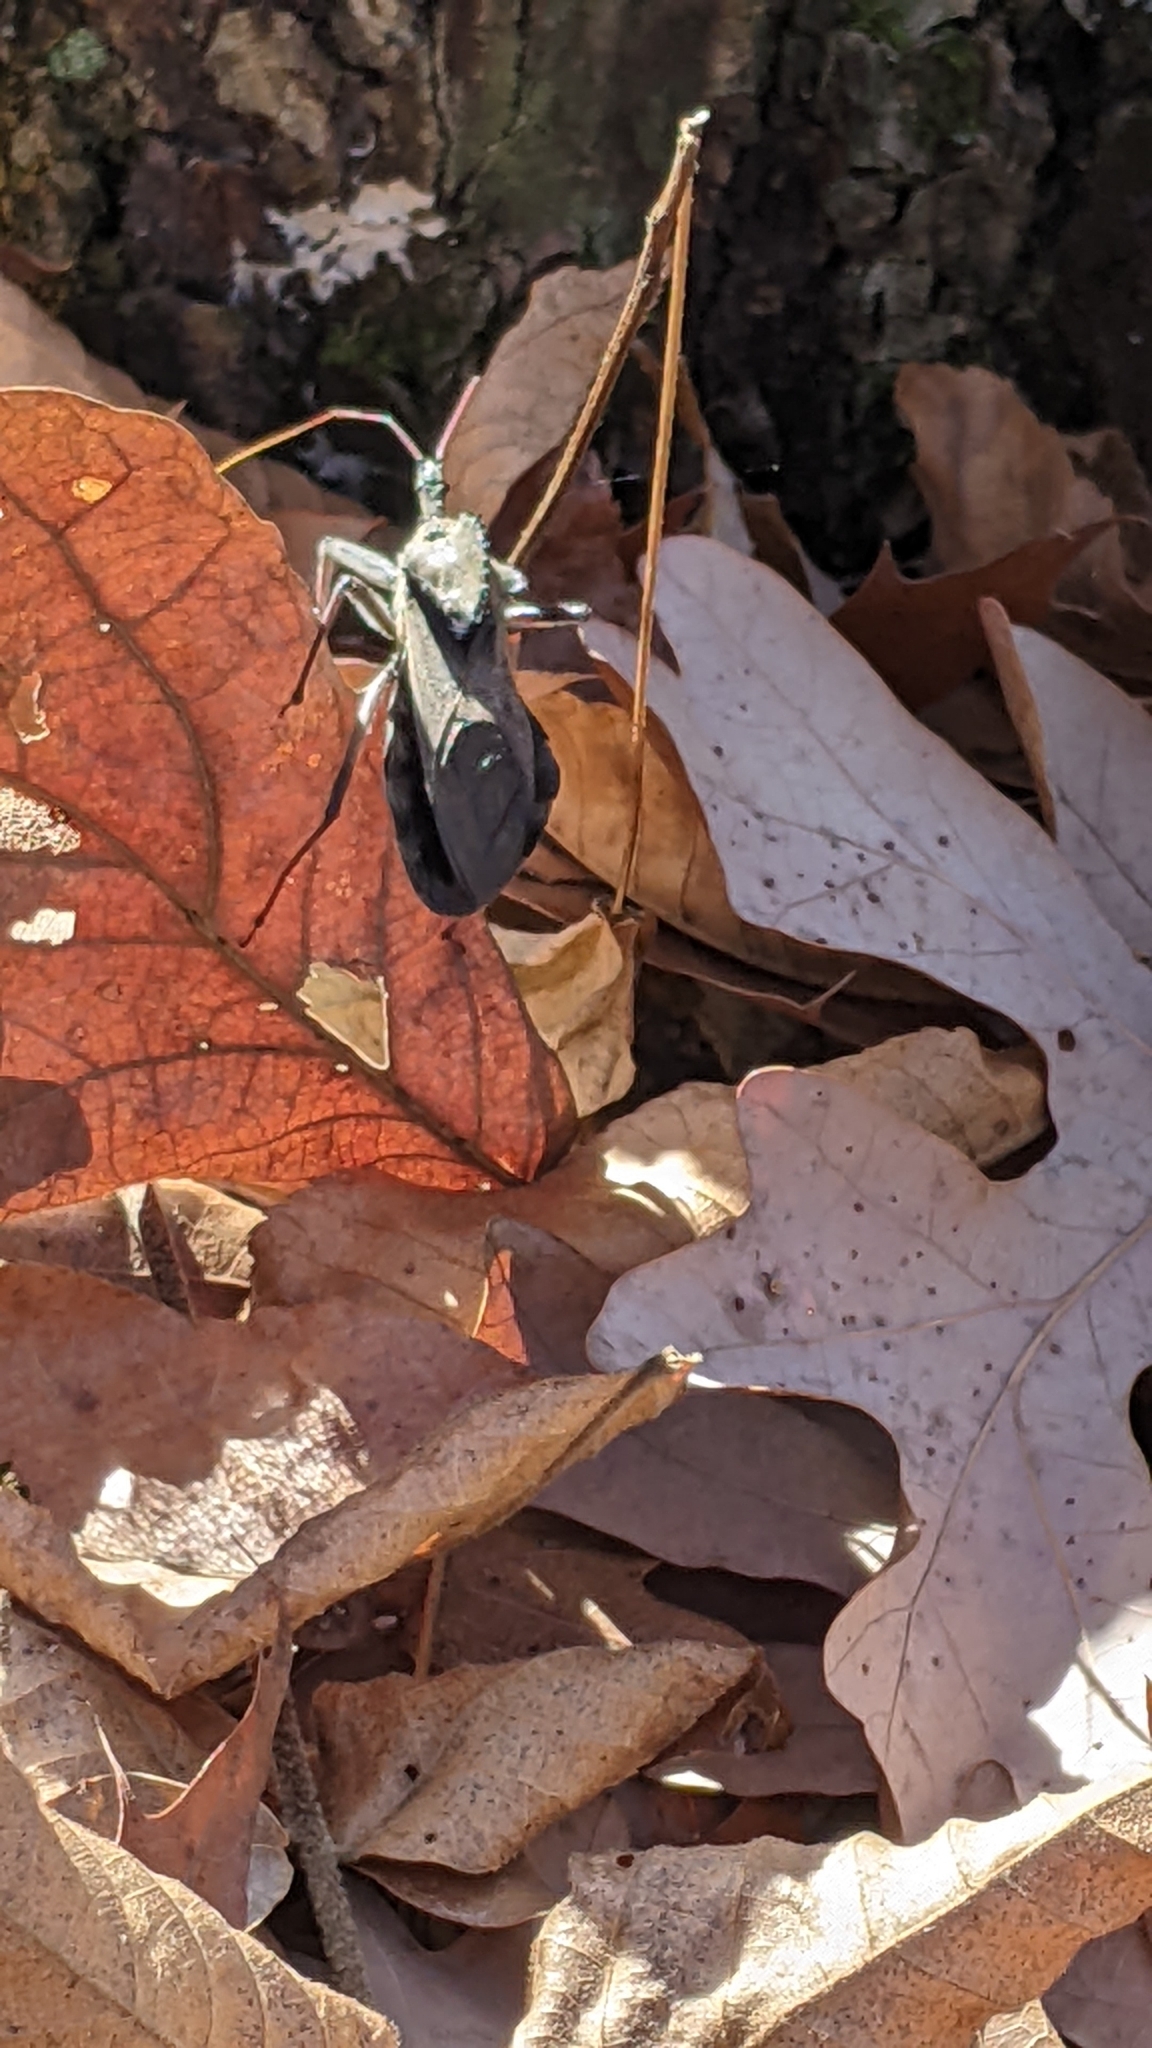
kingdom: Animalia
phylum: Arthropoda
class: Insecta
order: Hemiptera
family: Reduviidae
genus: Arilus
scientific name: Arilus cristatus
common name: North american wheel bug
